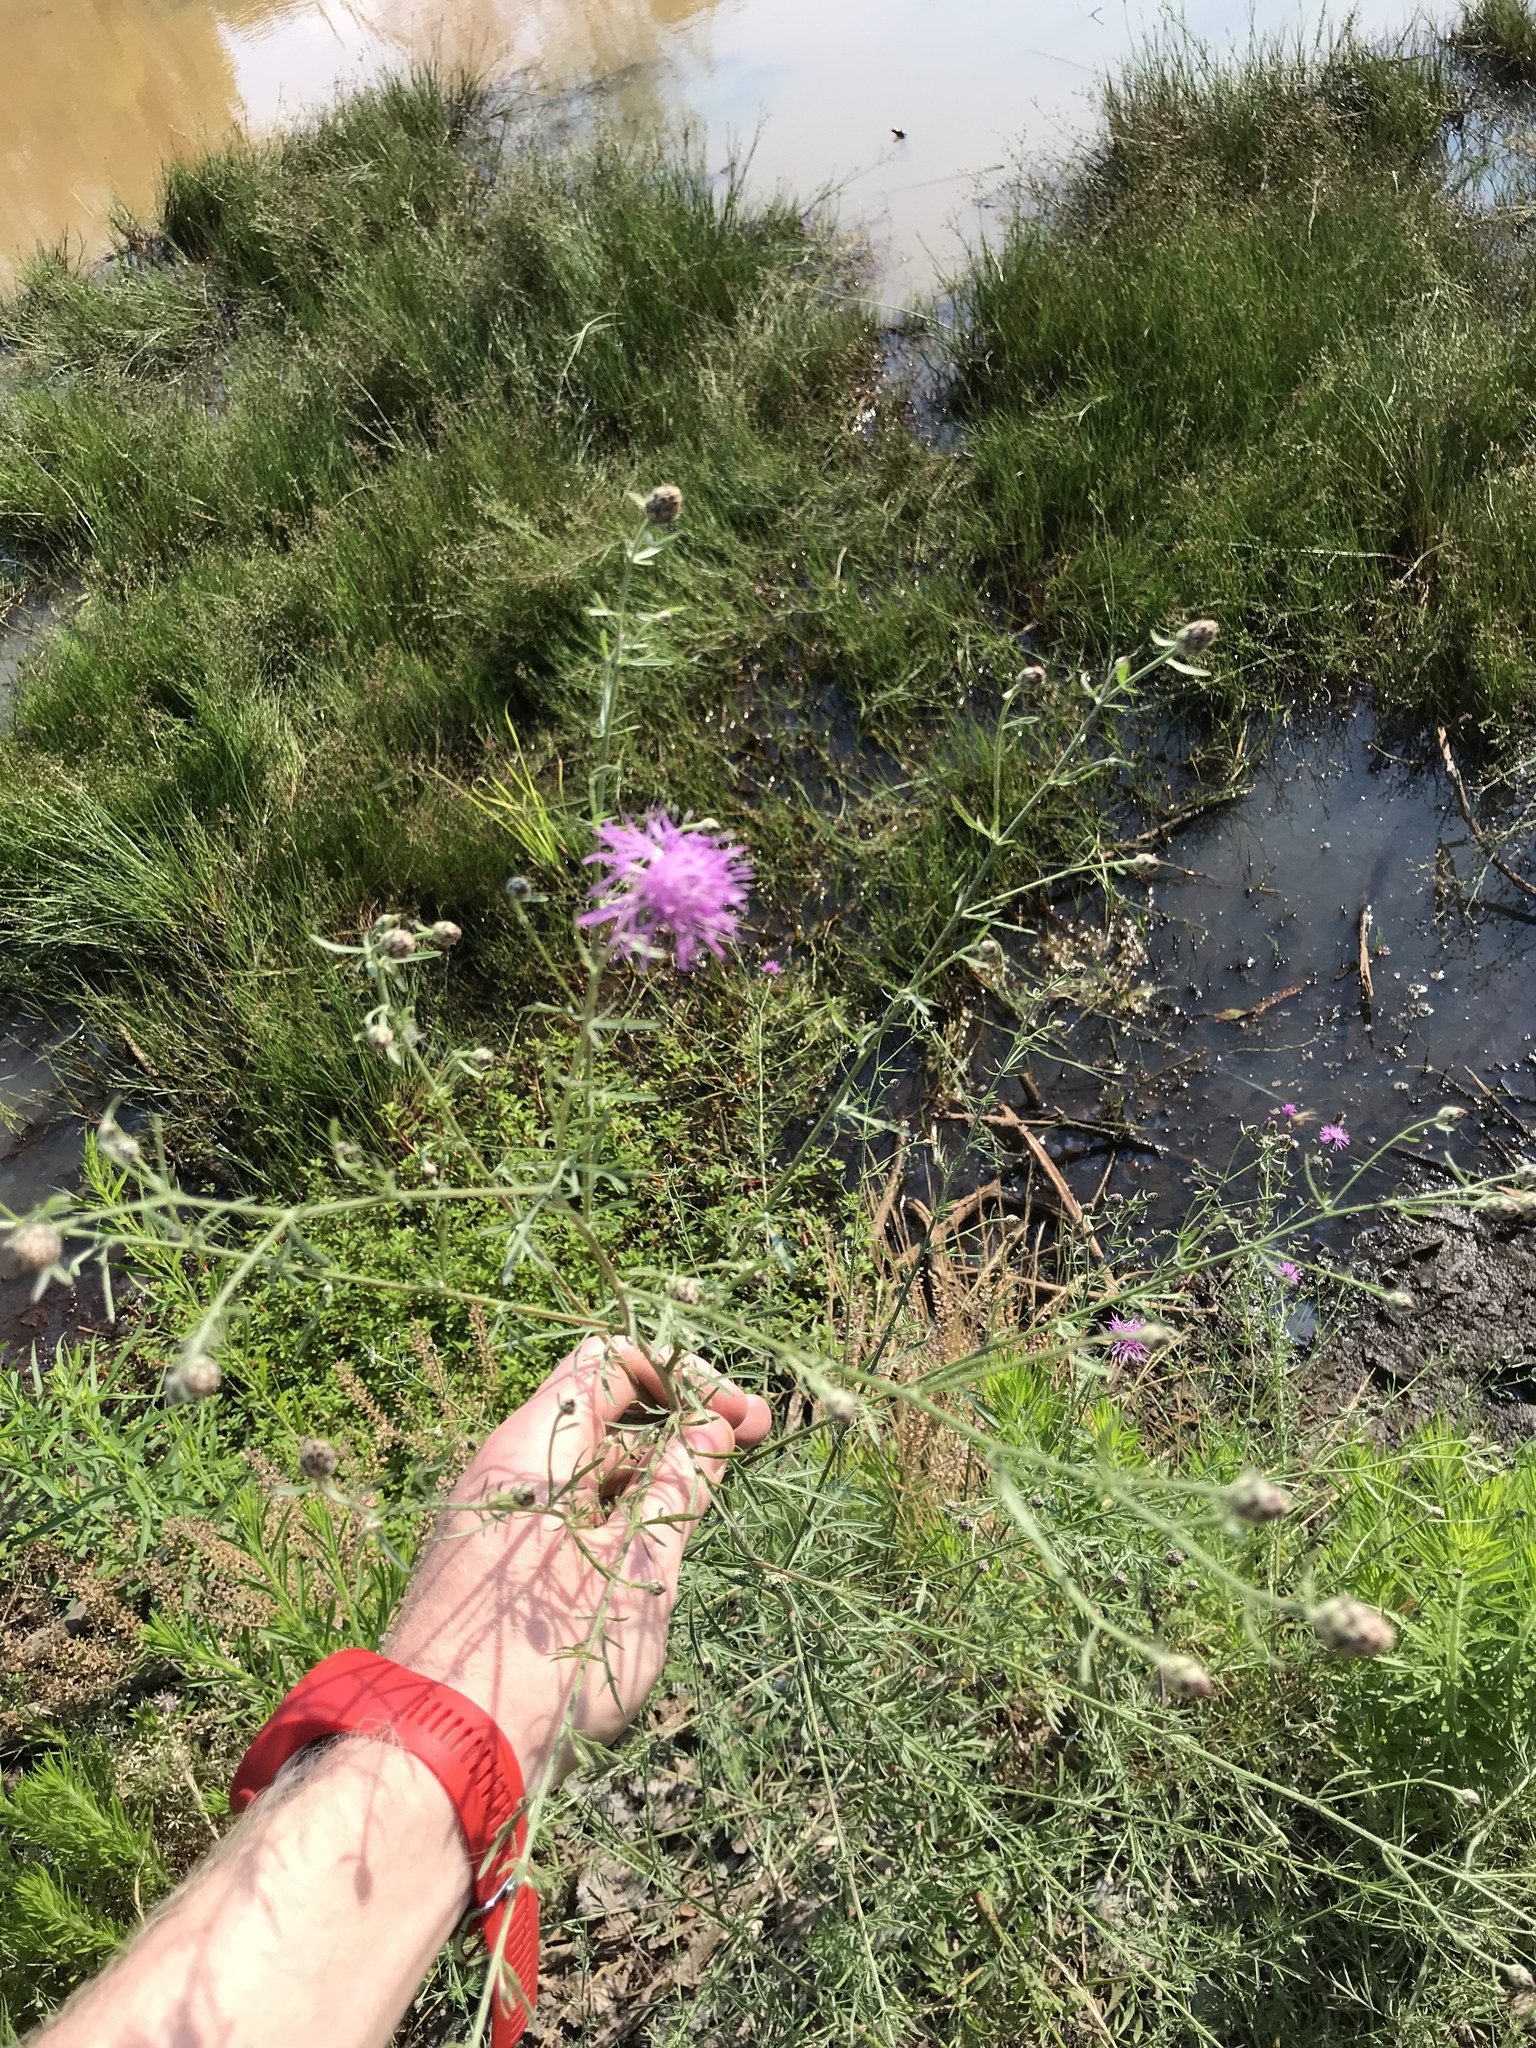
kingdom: Plantae
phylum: Tracheophyta
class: Magnoliopsida
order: Asterales
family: Asteraceae
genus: Centaurea
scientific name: Centaurea stoebe
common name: Spotted knapweed
